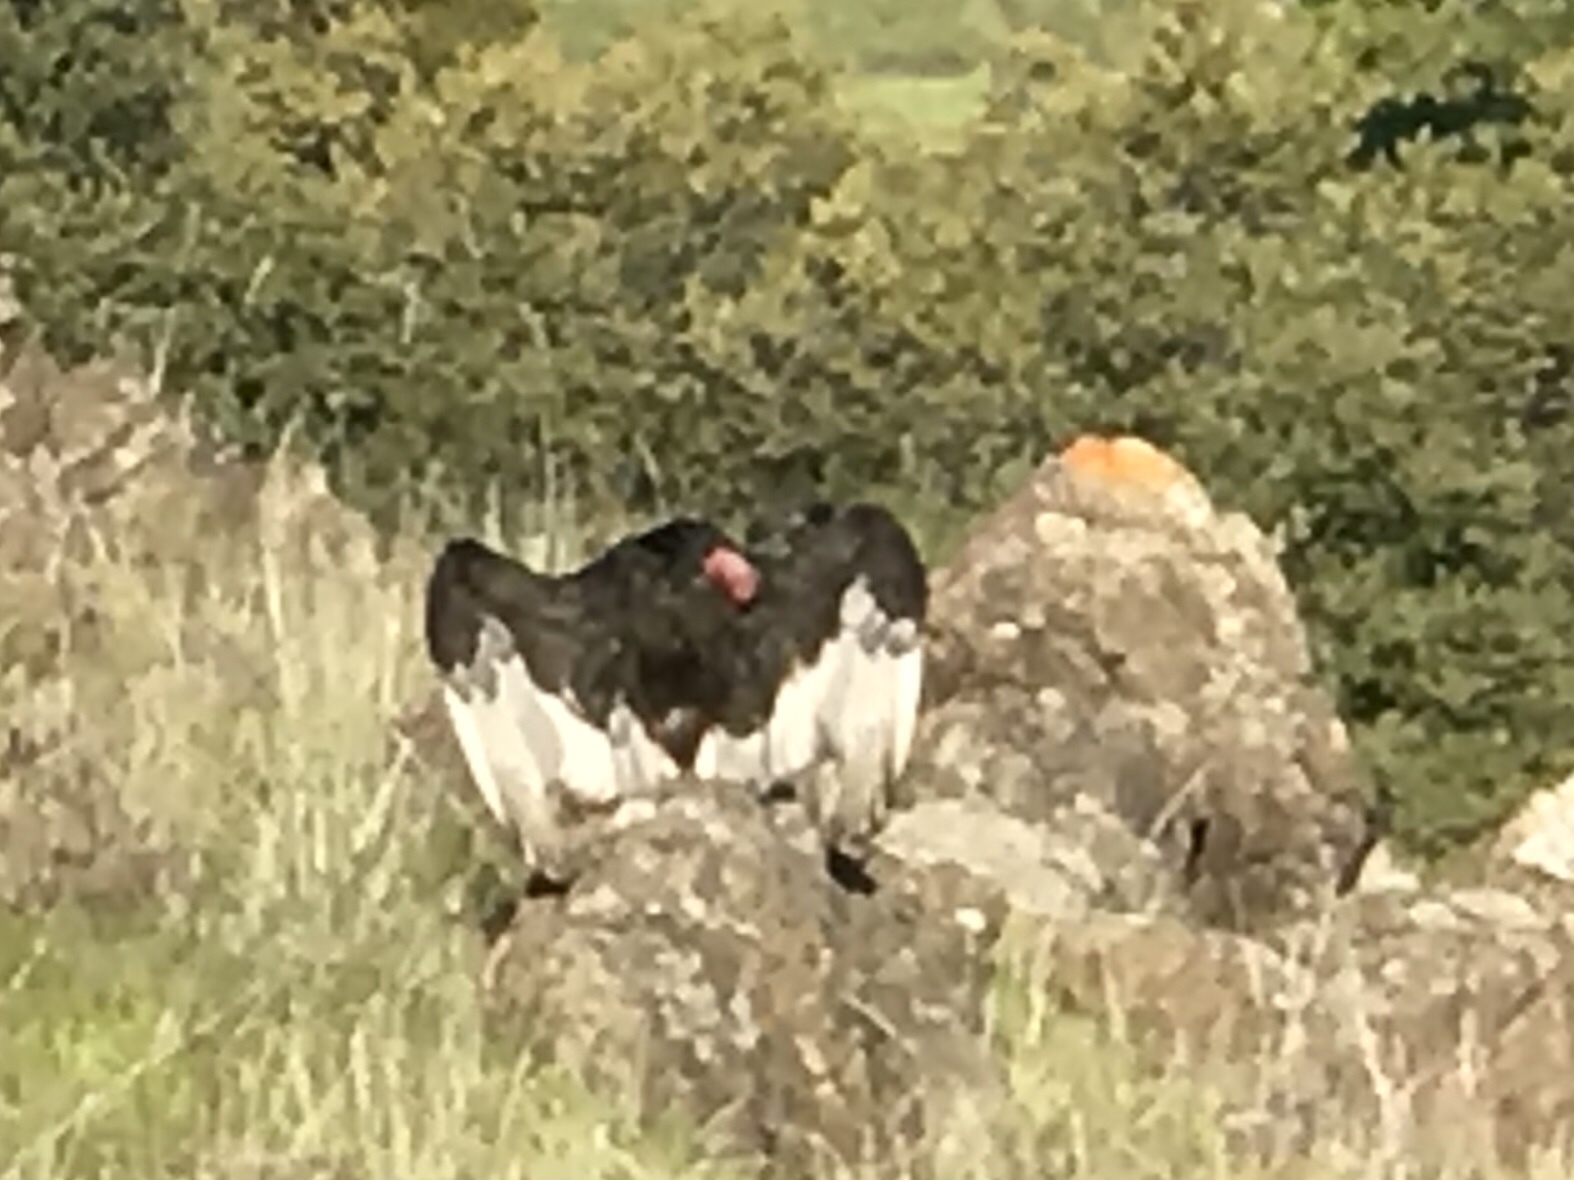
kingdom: Animalia
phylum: Chordata
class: Aves
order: Accipitriformes
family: Cathartidae
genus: Cathartes
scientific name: Cathartes aura
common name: Turkey vulture
